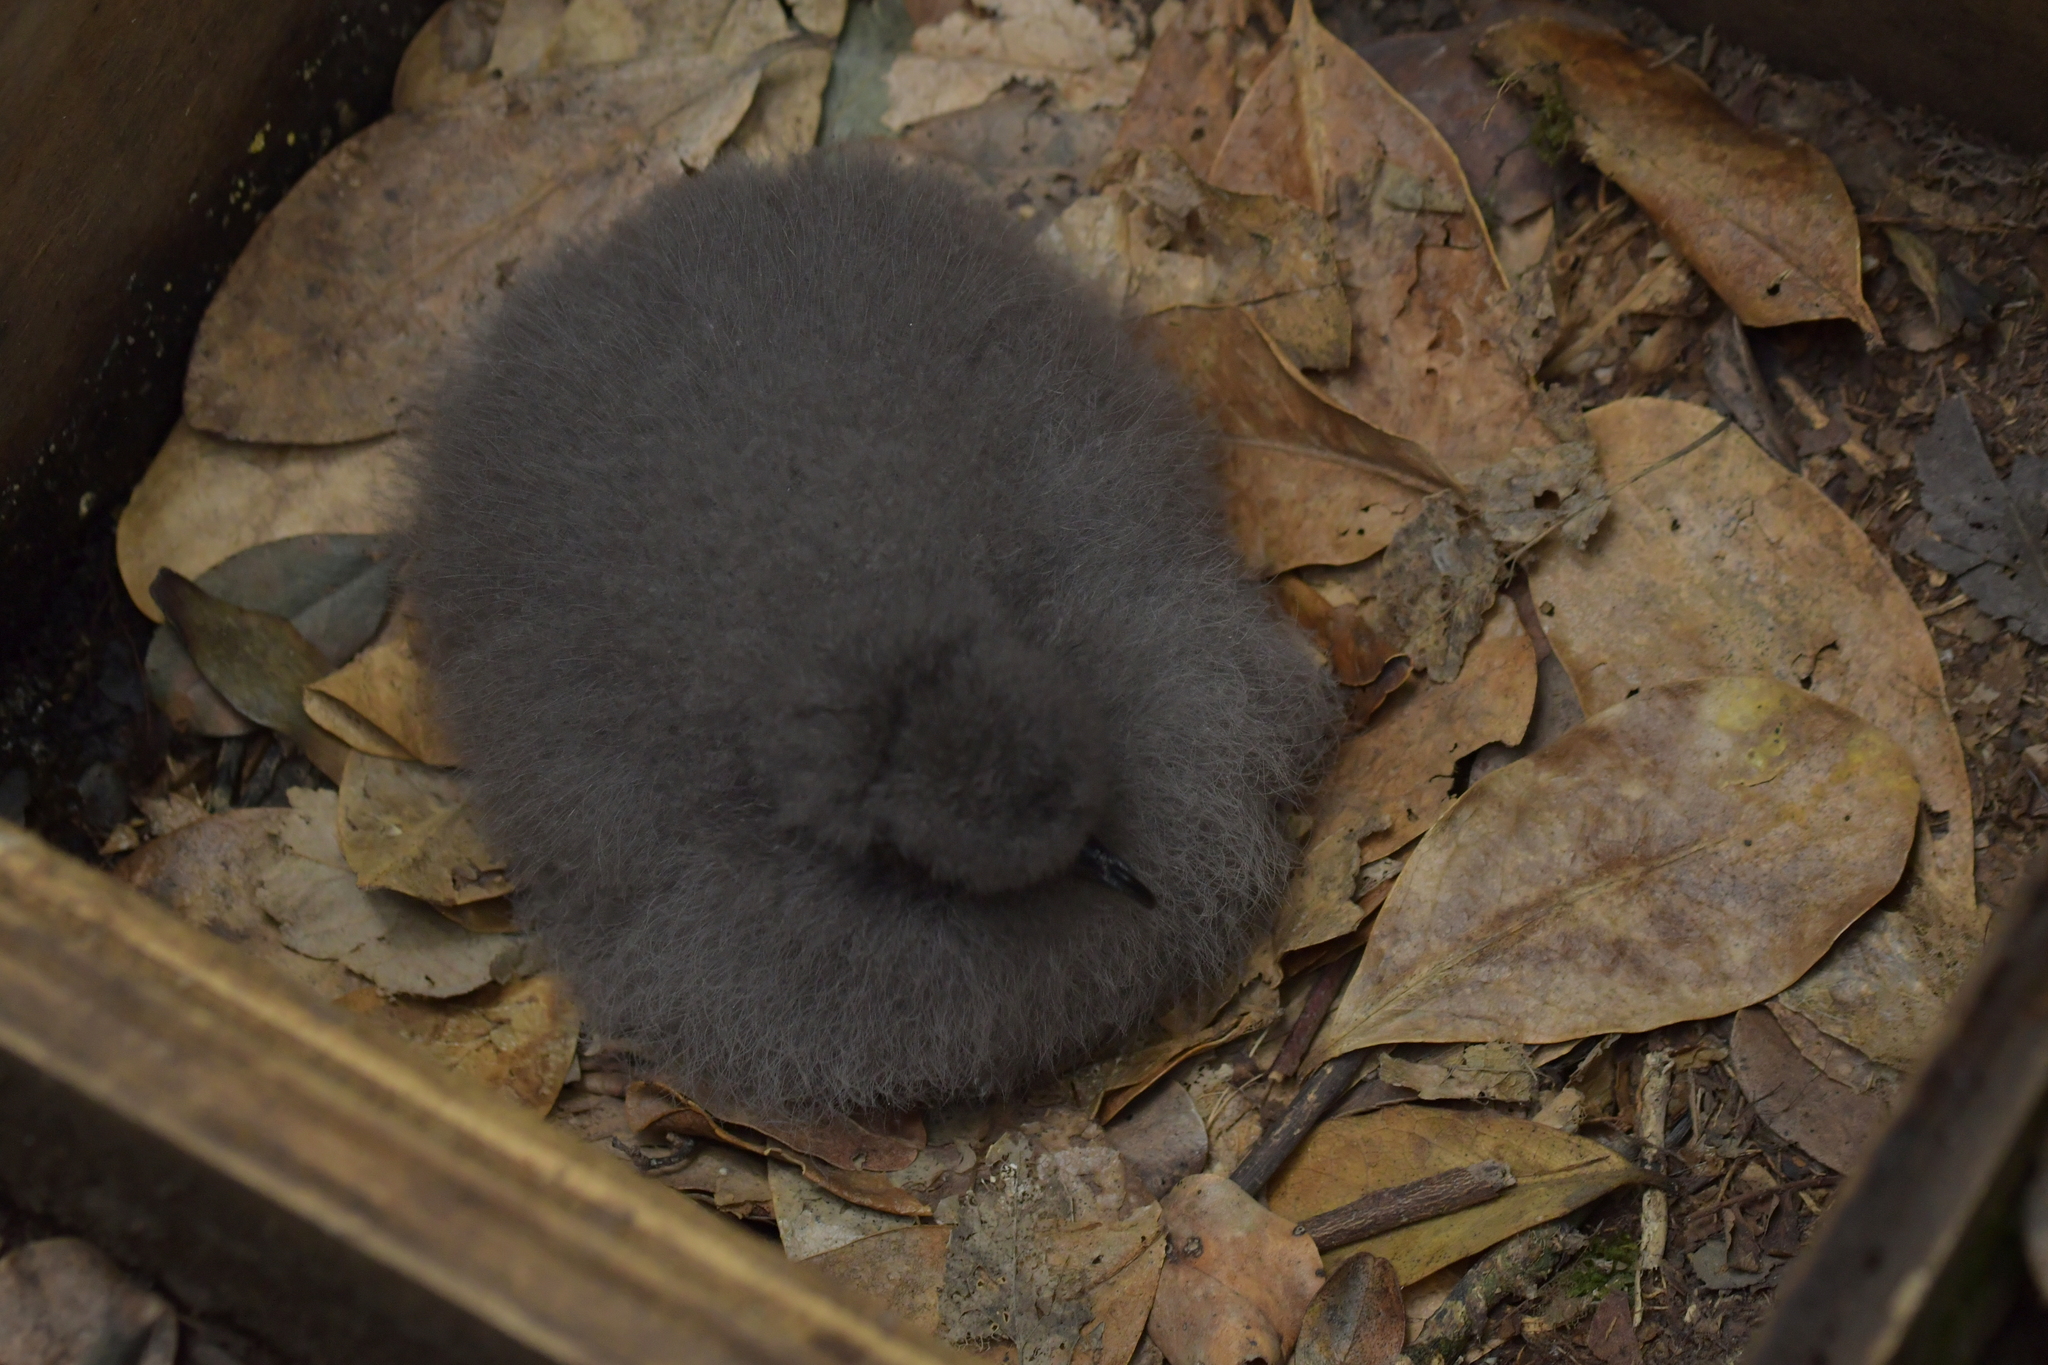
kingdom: Animalia
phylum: Chordata
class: Aves
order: Procellariiformes
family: Procellariidae
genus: Pterodroma
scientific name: Pterodroma axillaris
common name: Chatham petrel
